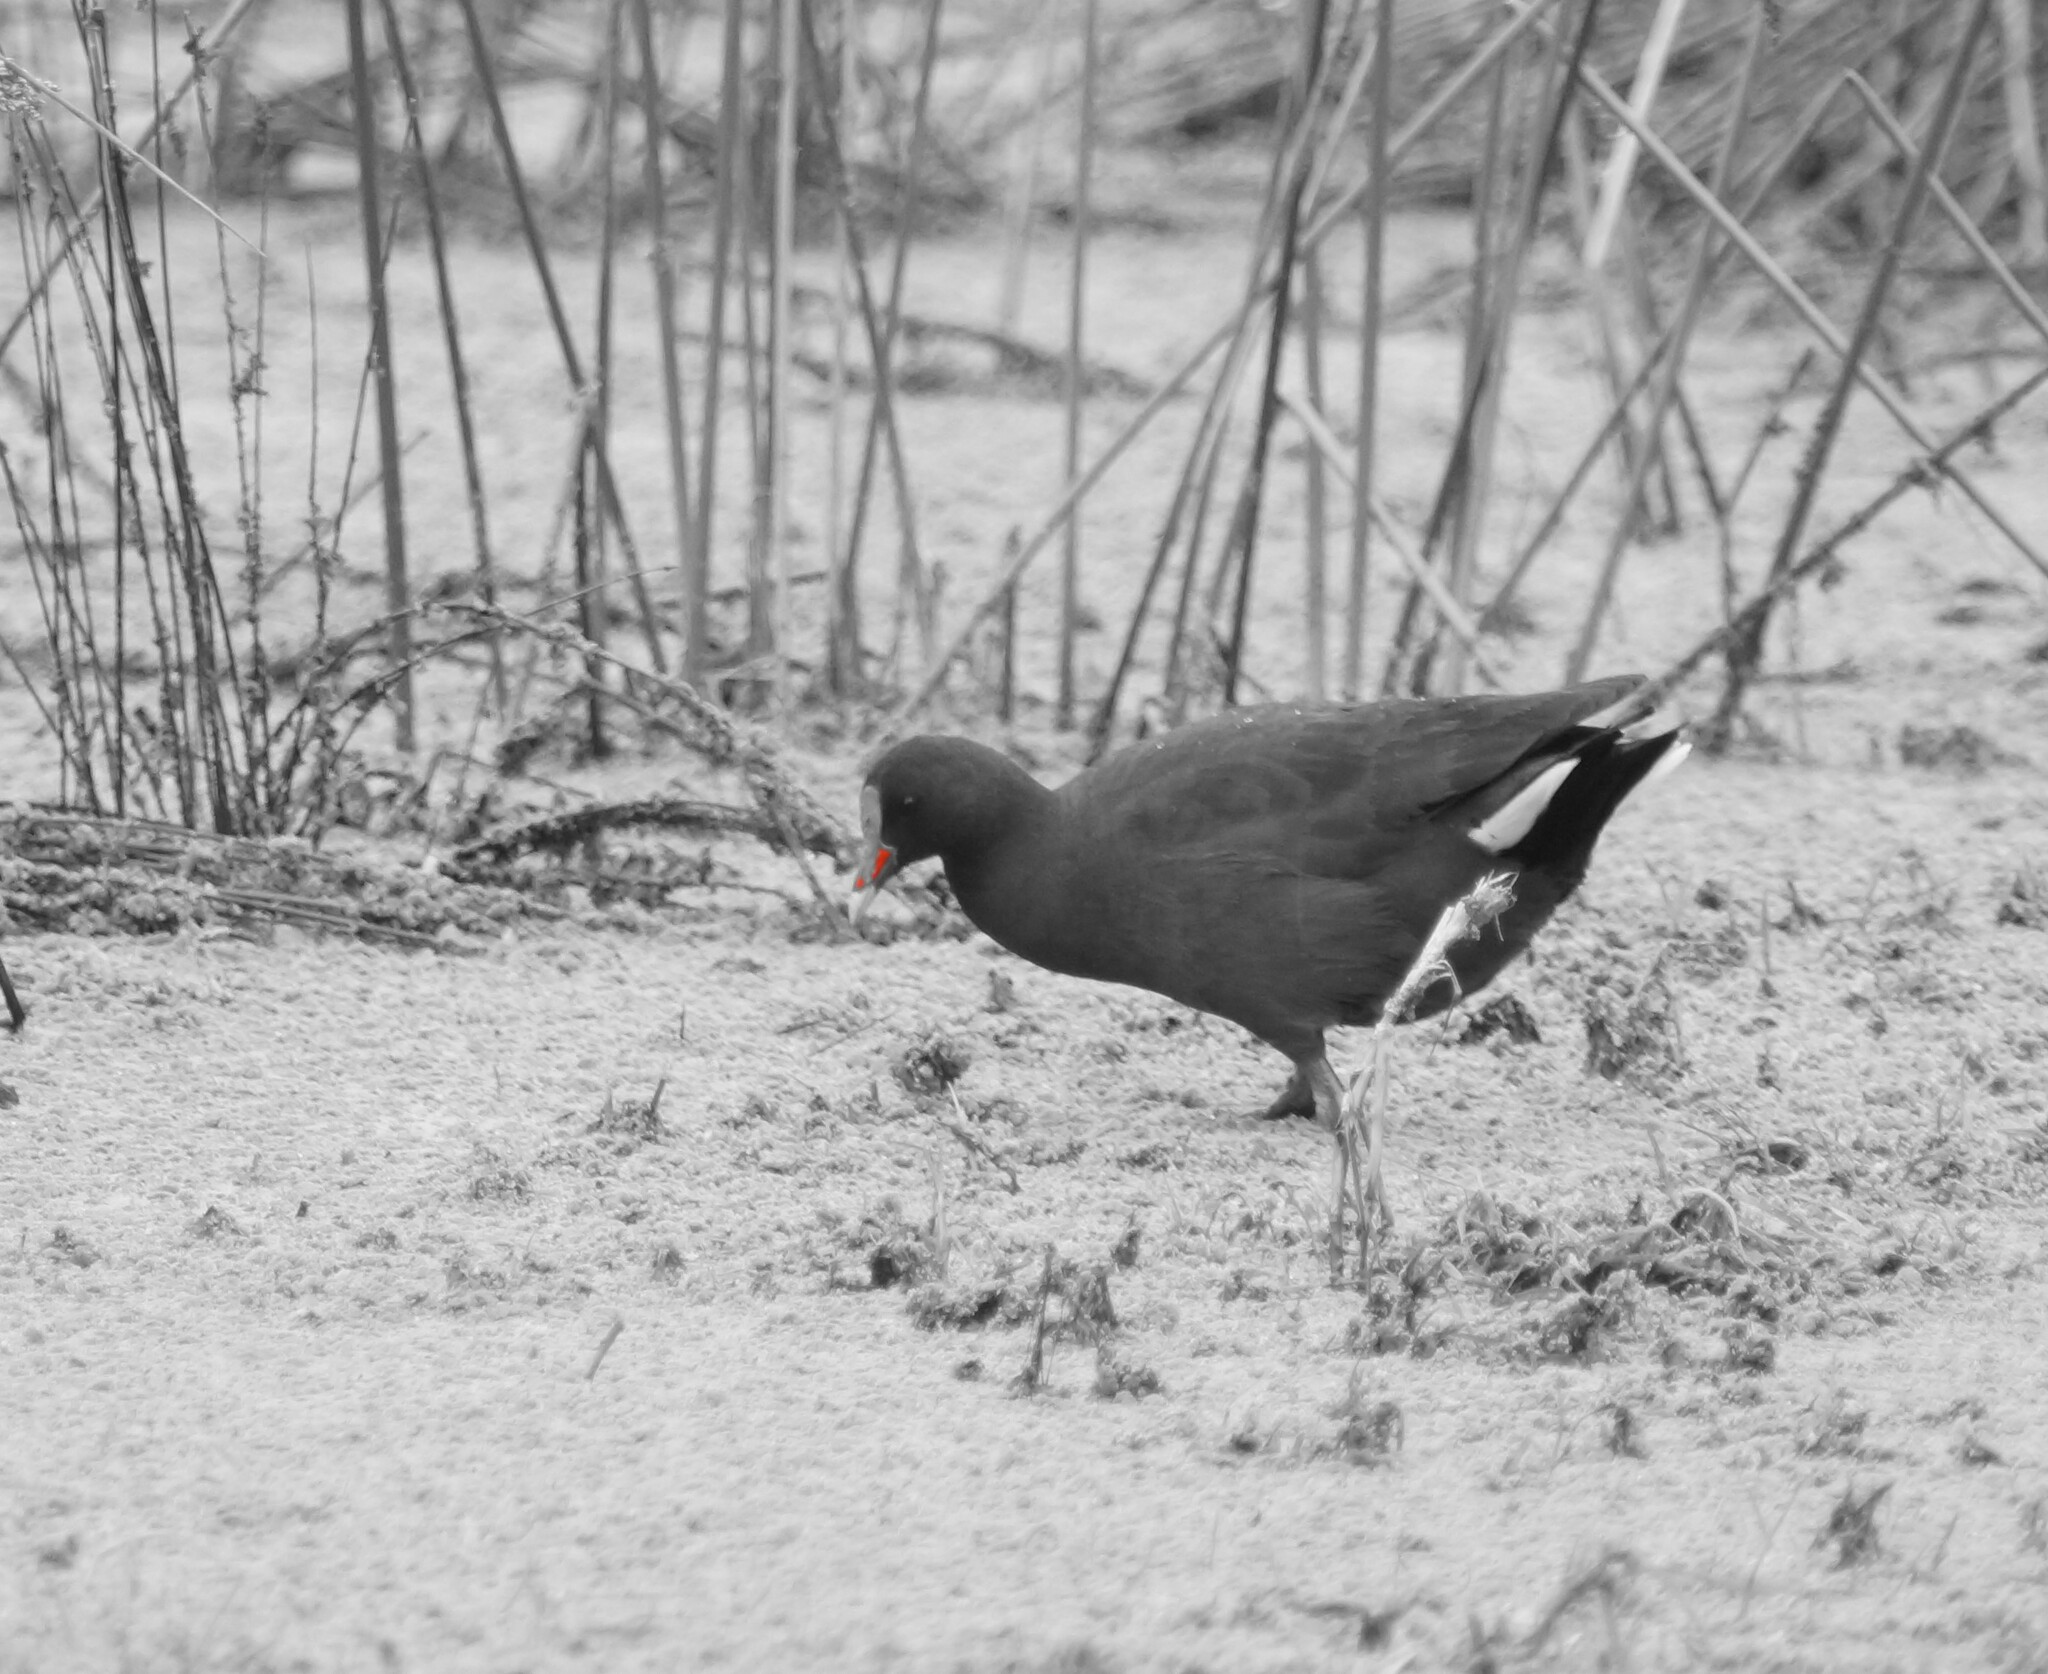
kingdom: Animalia
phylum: Chordata
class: Aves
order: Gruiformes
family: Rallidae
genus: Gallinula
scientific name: Gallinula tenebrosa
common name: Dusky moorhen
